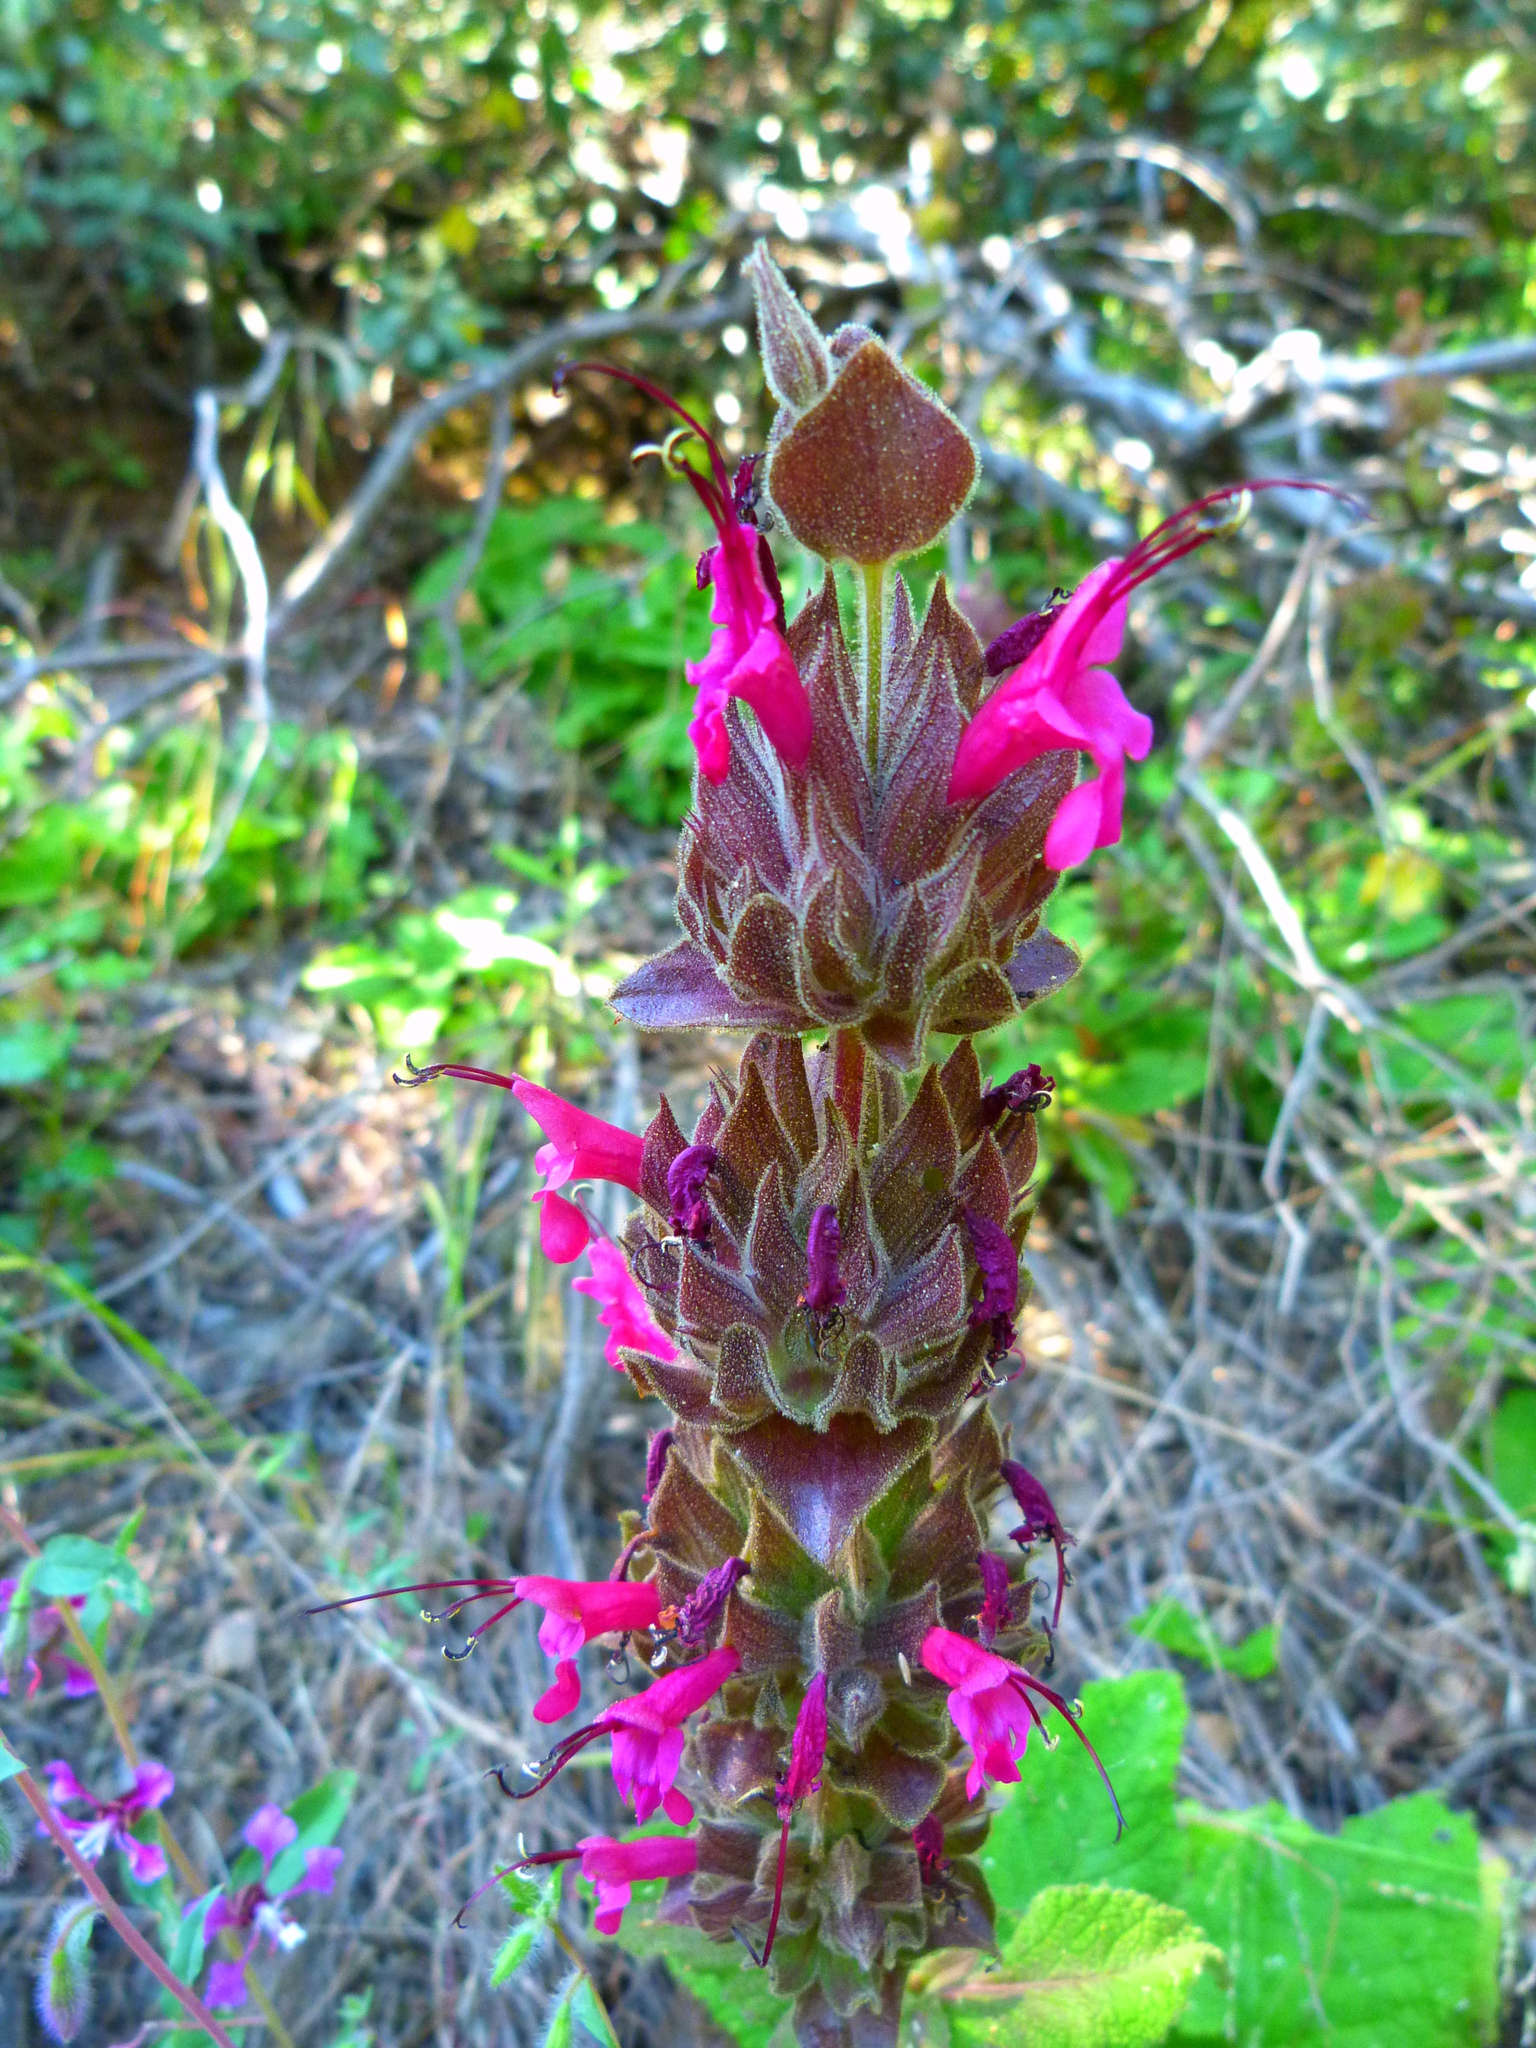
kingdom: Plantae
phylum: Tracheophyta
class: Magnoliopsida
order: Lamiales
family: Lamiaceae
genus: Salvia
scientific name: Salvia spathacea
